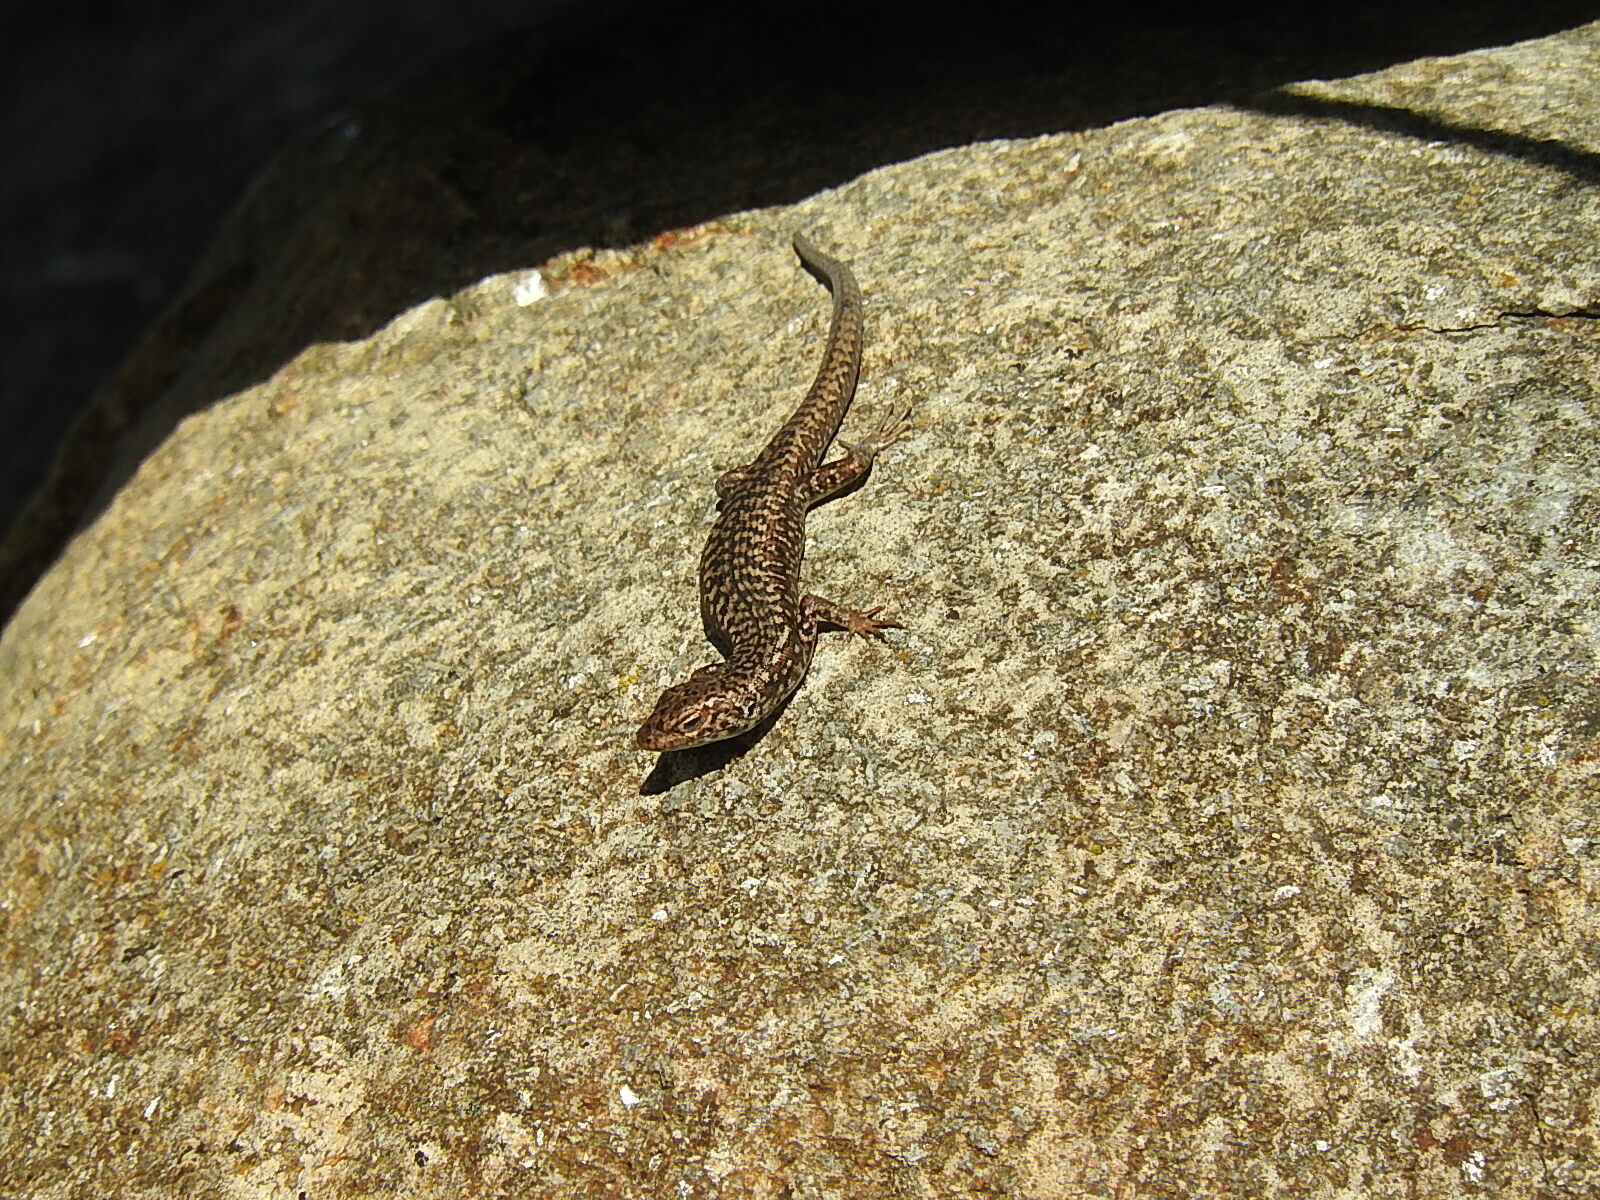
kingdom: Animalia
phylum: Chordata
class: Squamata
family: Scincidae
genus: Carinascincus
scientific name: Carinascincus ocellatus
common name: Ocellated cool-skink
